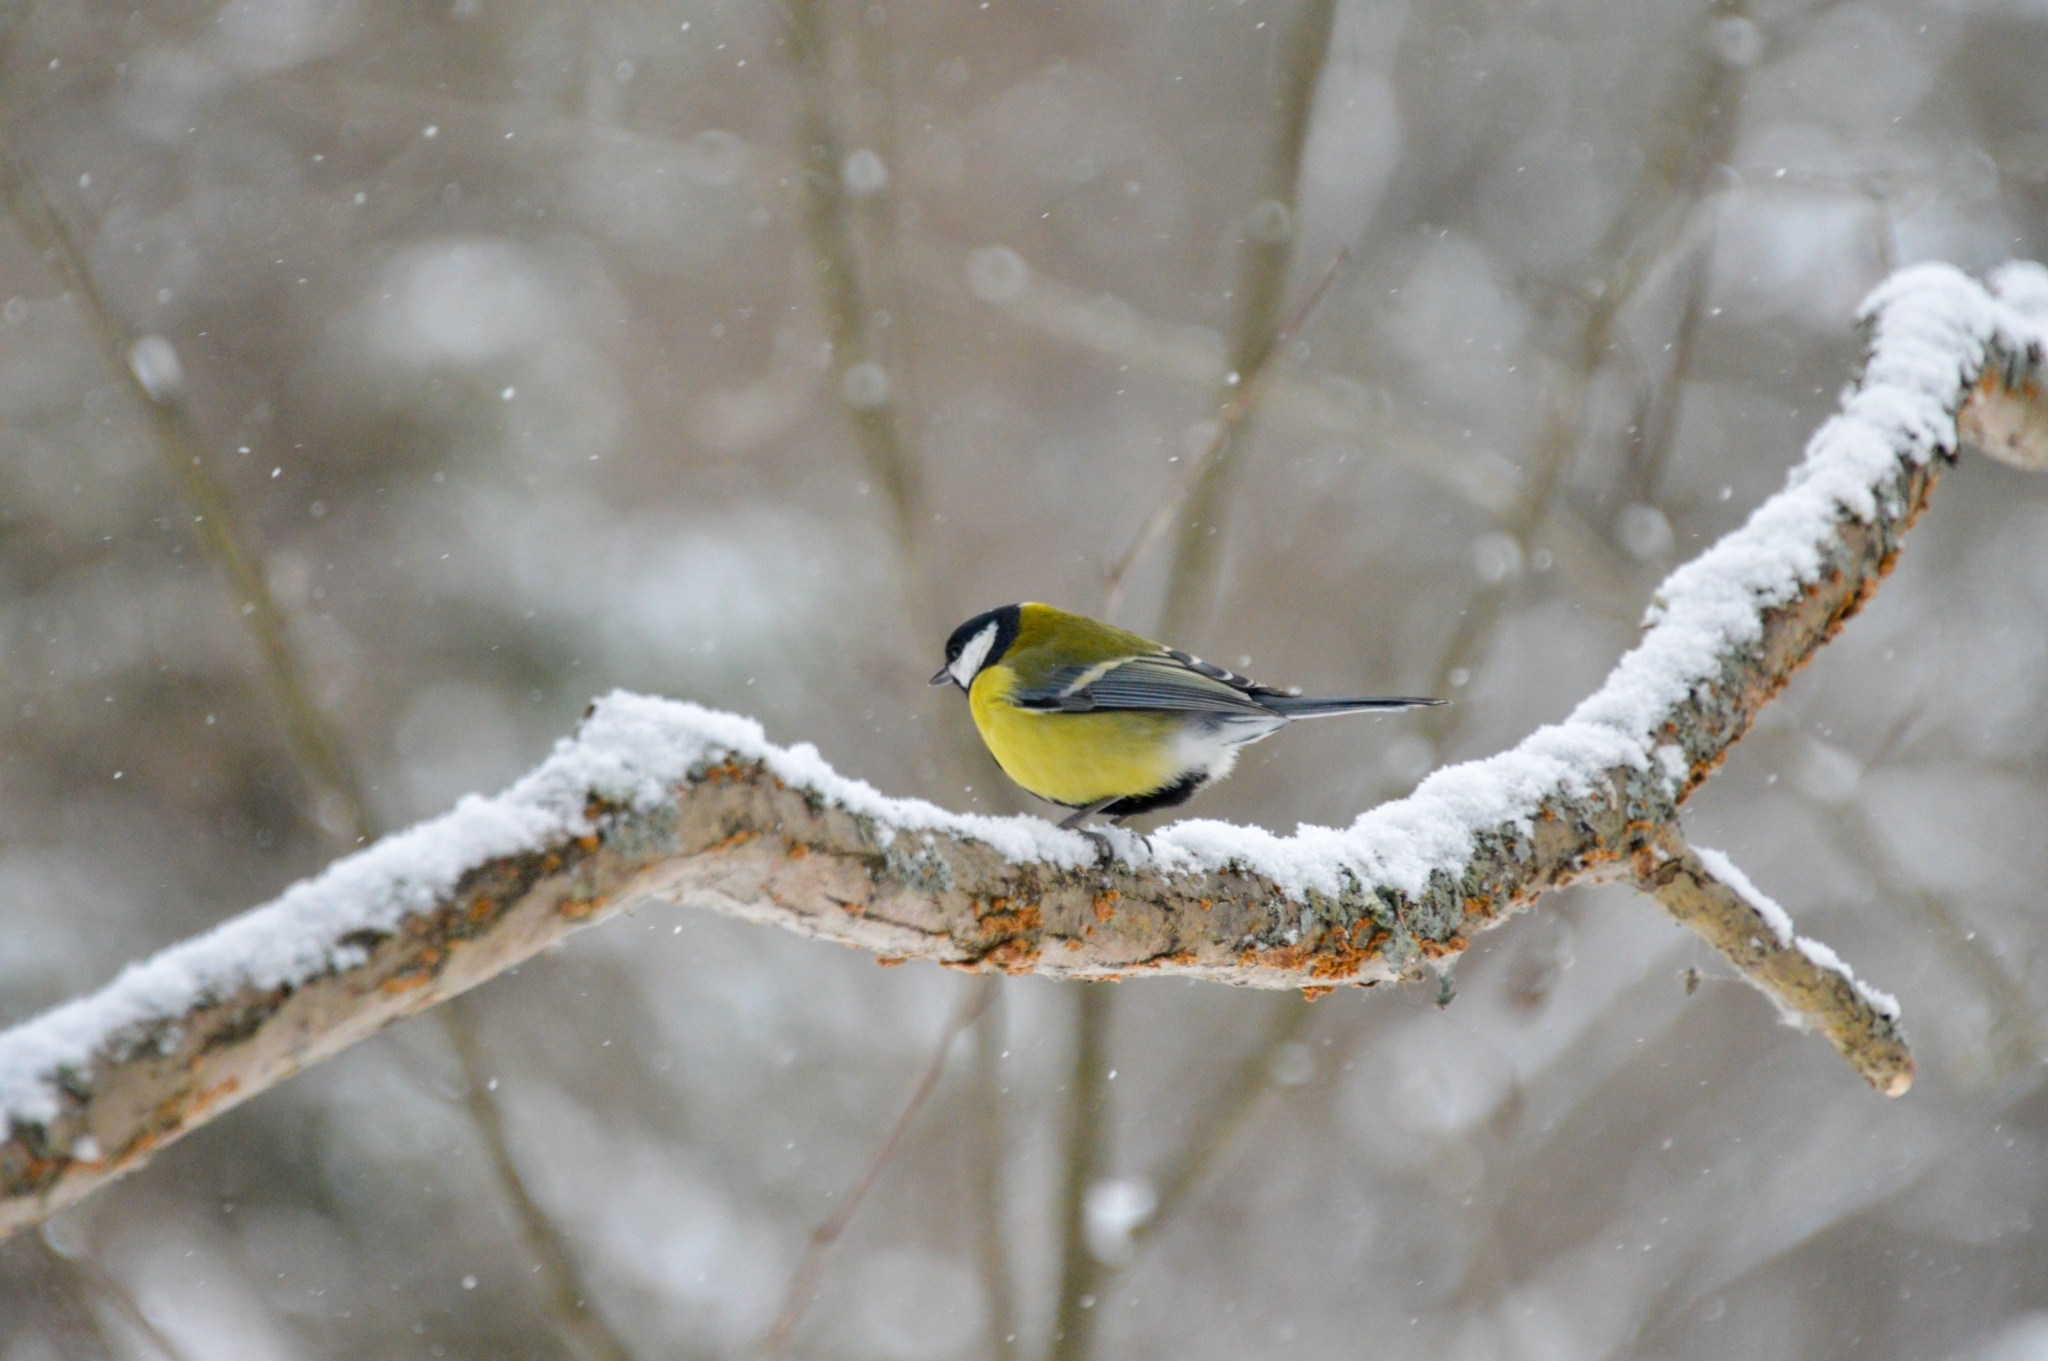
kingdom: Animalia
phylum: Chordata
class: Aves
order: Passeriformes
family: Paridae
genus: Parus
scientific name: Parus major
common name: Great tit
